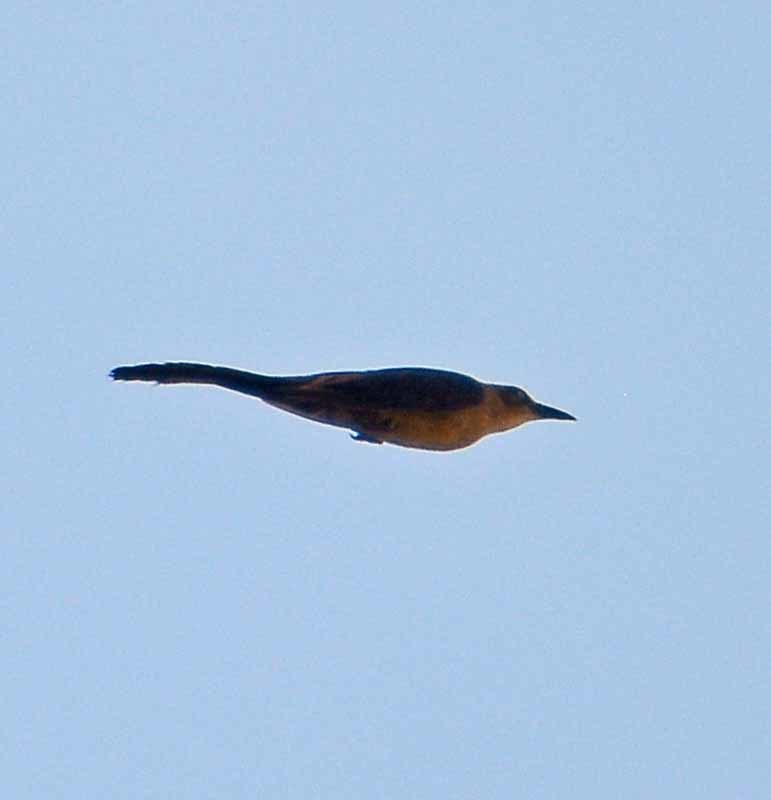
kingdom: Animalia
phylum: Chordata
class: Aves
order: Passeriformes
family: Icteridae
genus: Quiscalus
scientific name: Quiscalus mexicanus
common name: Great-tailed grackle
